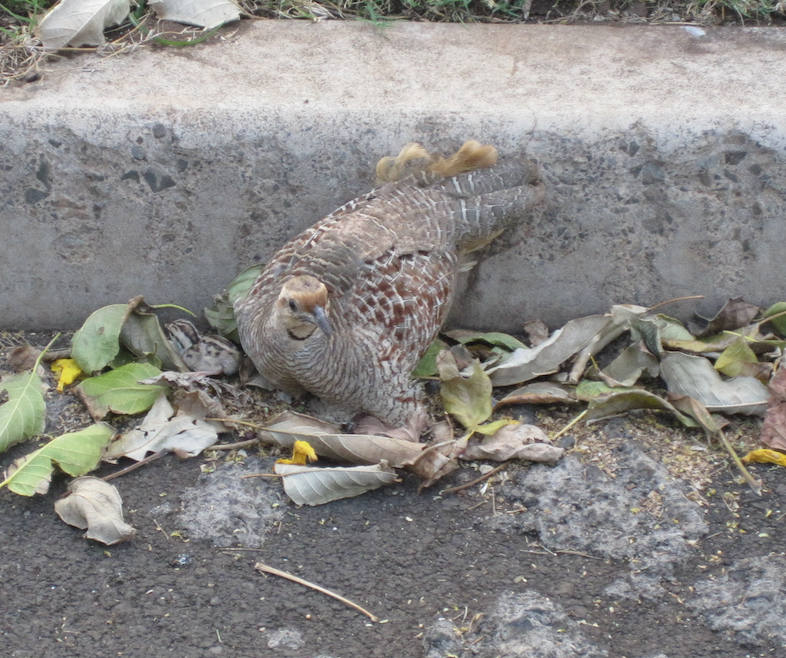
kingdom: Animalia
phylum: Chordata
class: Aves
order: Galliformes
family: Phasianidae
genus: Ortygornis
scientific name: Ortygornis pondicerianus
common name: Grey francolin
